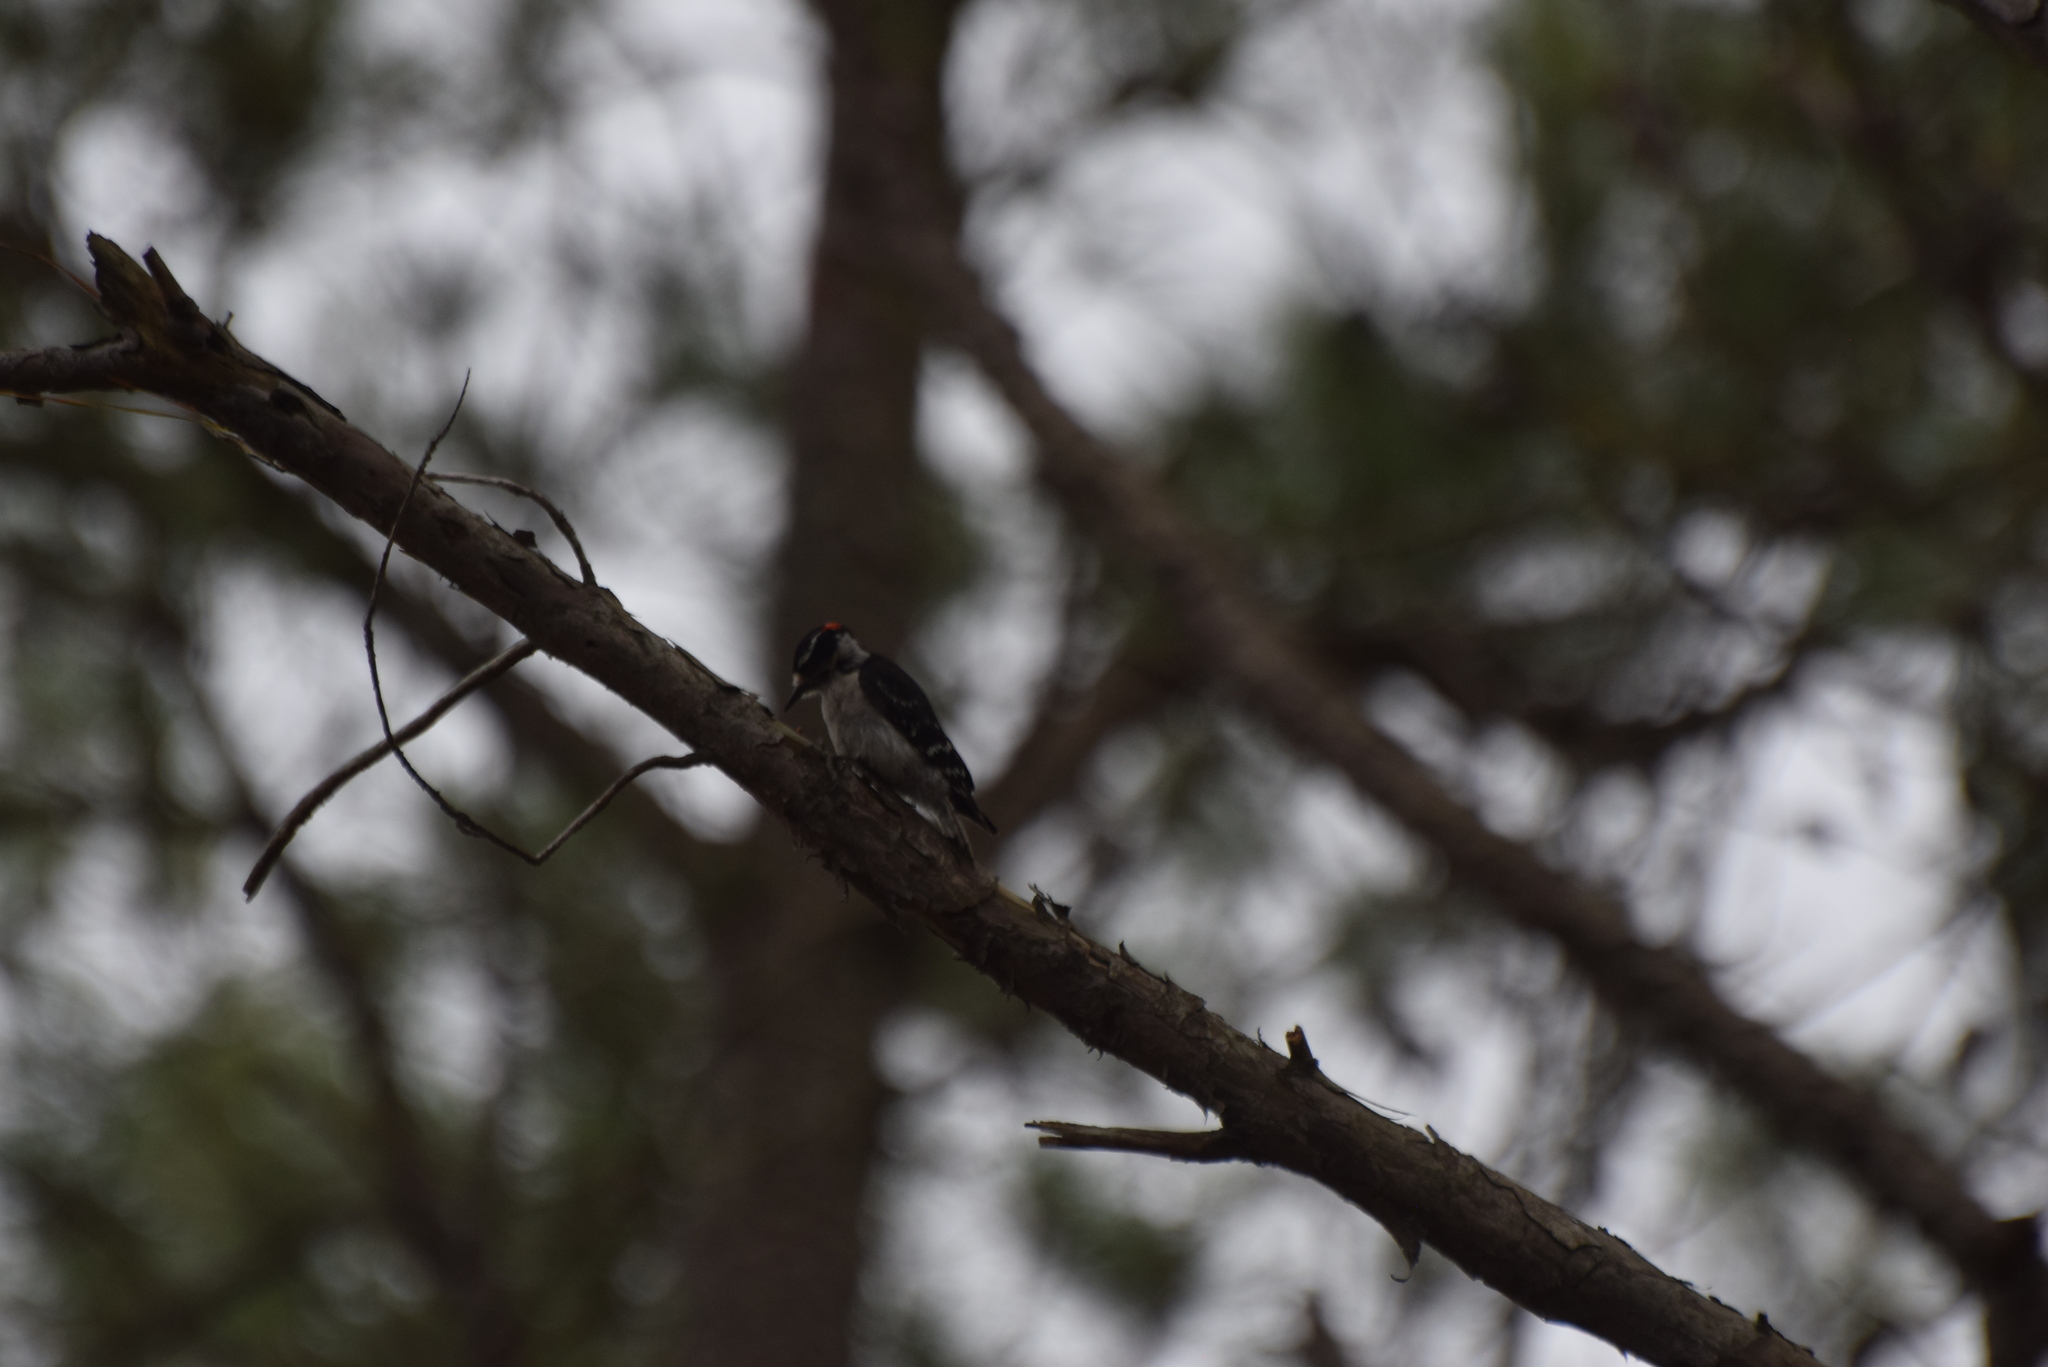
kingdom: Animalia
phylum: Chordata
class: Aves
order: Piciformes
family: Picidae
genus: Dryobates
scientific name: Dryobates pubescens
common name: Downy woodpecker
